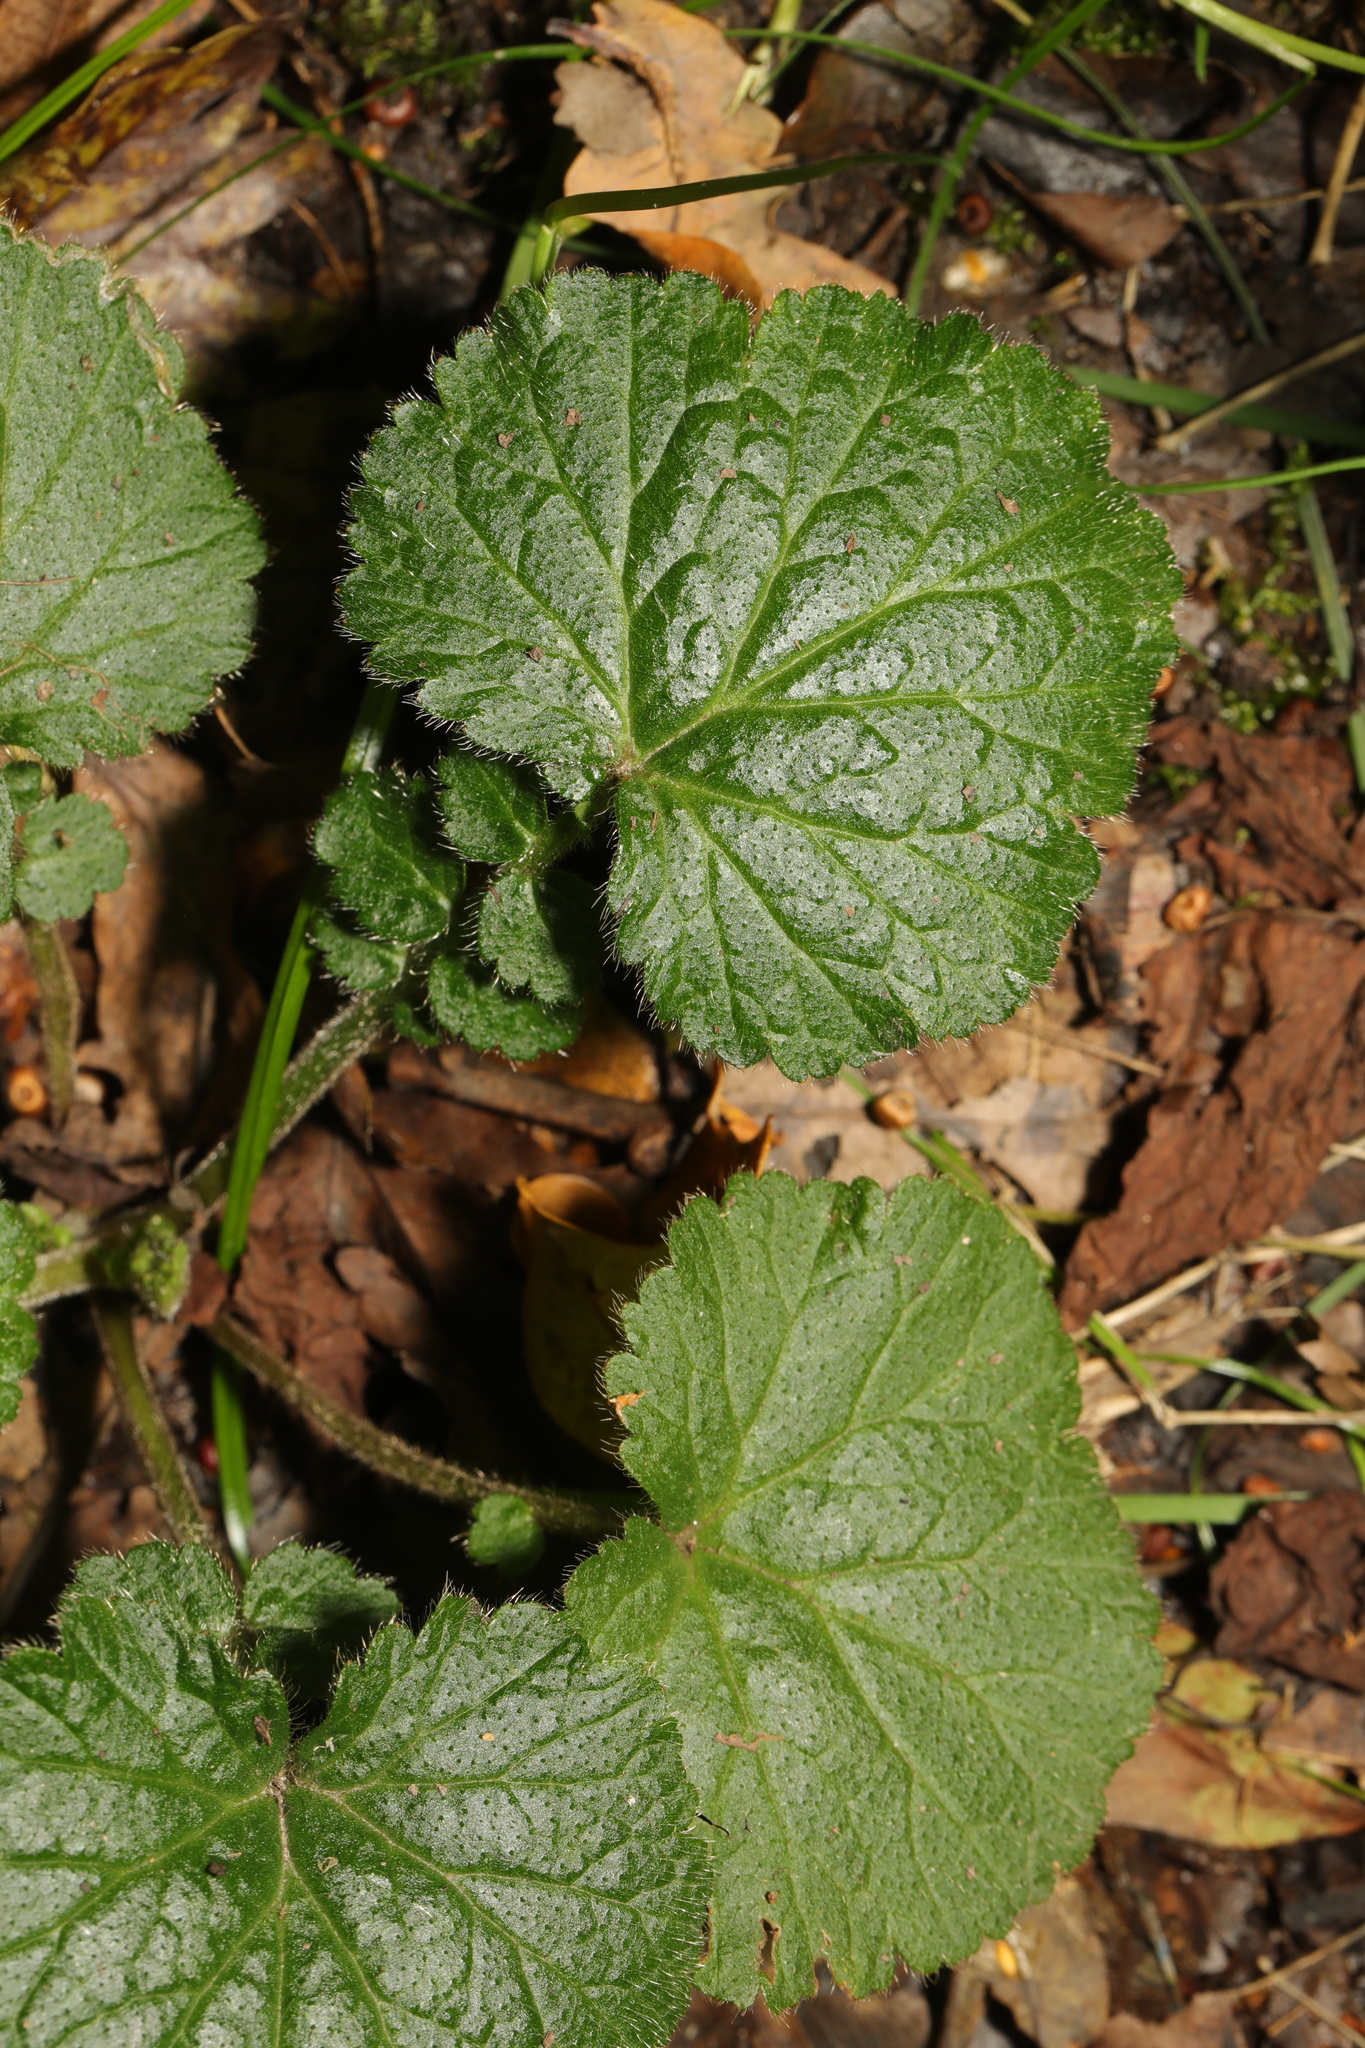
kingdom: Plantae
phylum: Tracheophyta
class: Magnoliopsida
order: Rosales
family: Rosaceae
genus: Geum
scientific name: Geum urbanum
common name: Wood avens
